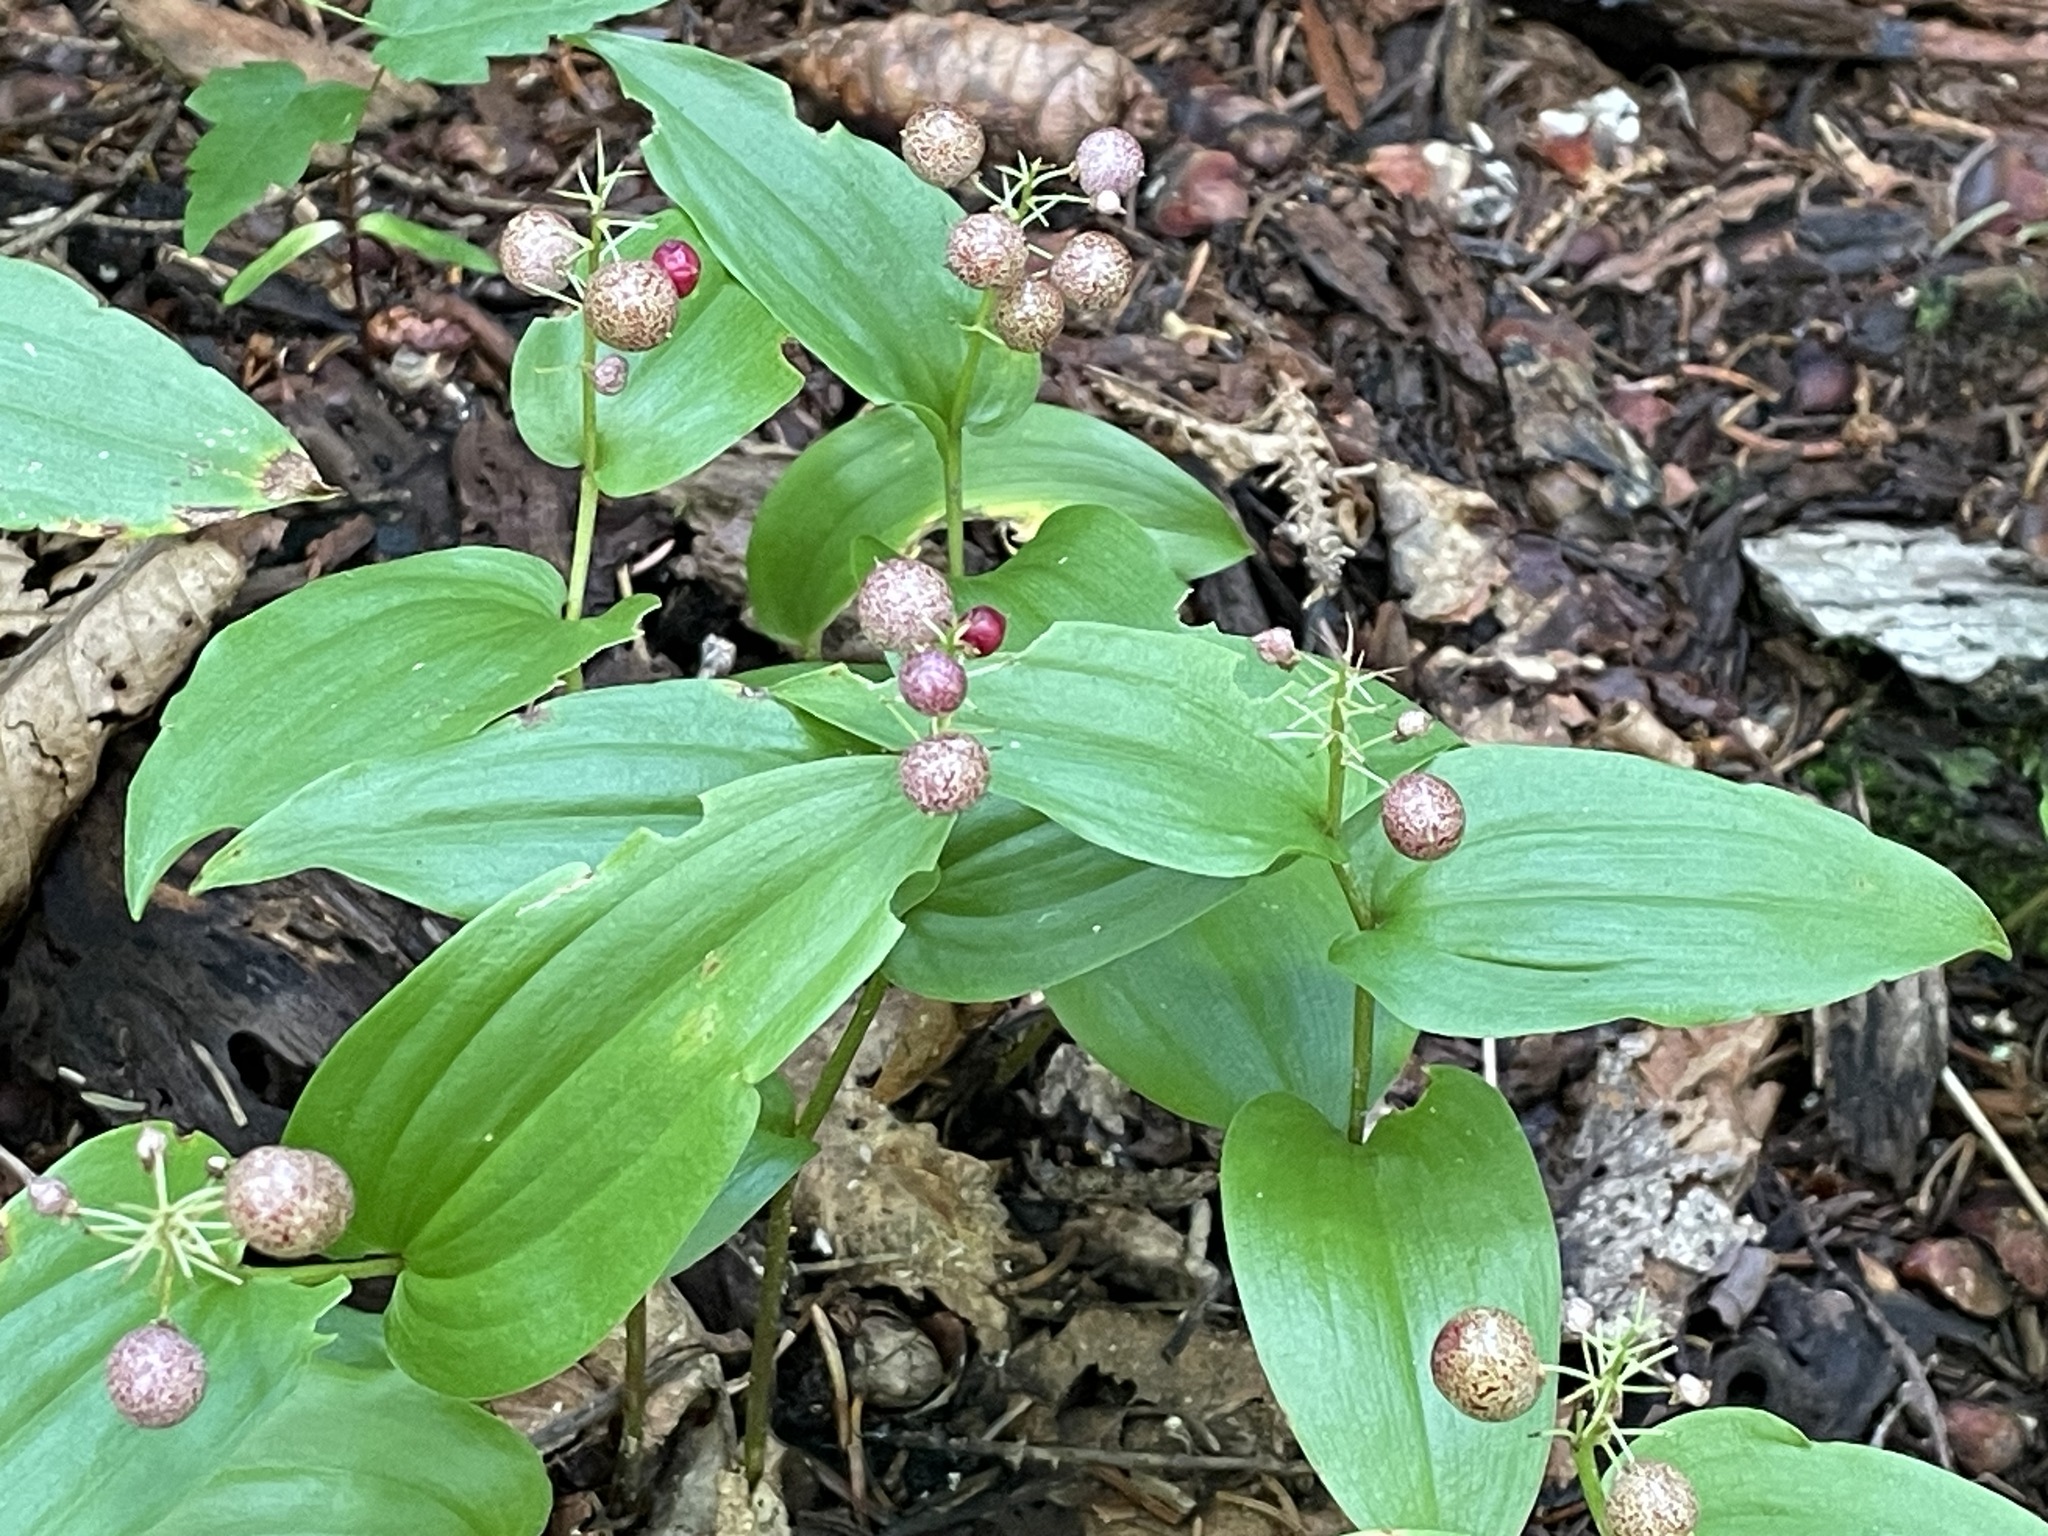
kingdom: Plantae
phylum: Tracheophyta
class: Liliopsida
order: Asparagales
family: Asparagaceae
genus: Maianthemum
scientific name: Maianthemum canadense
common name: False lily-of-the-valley
